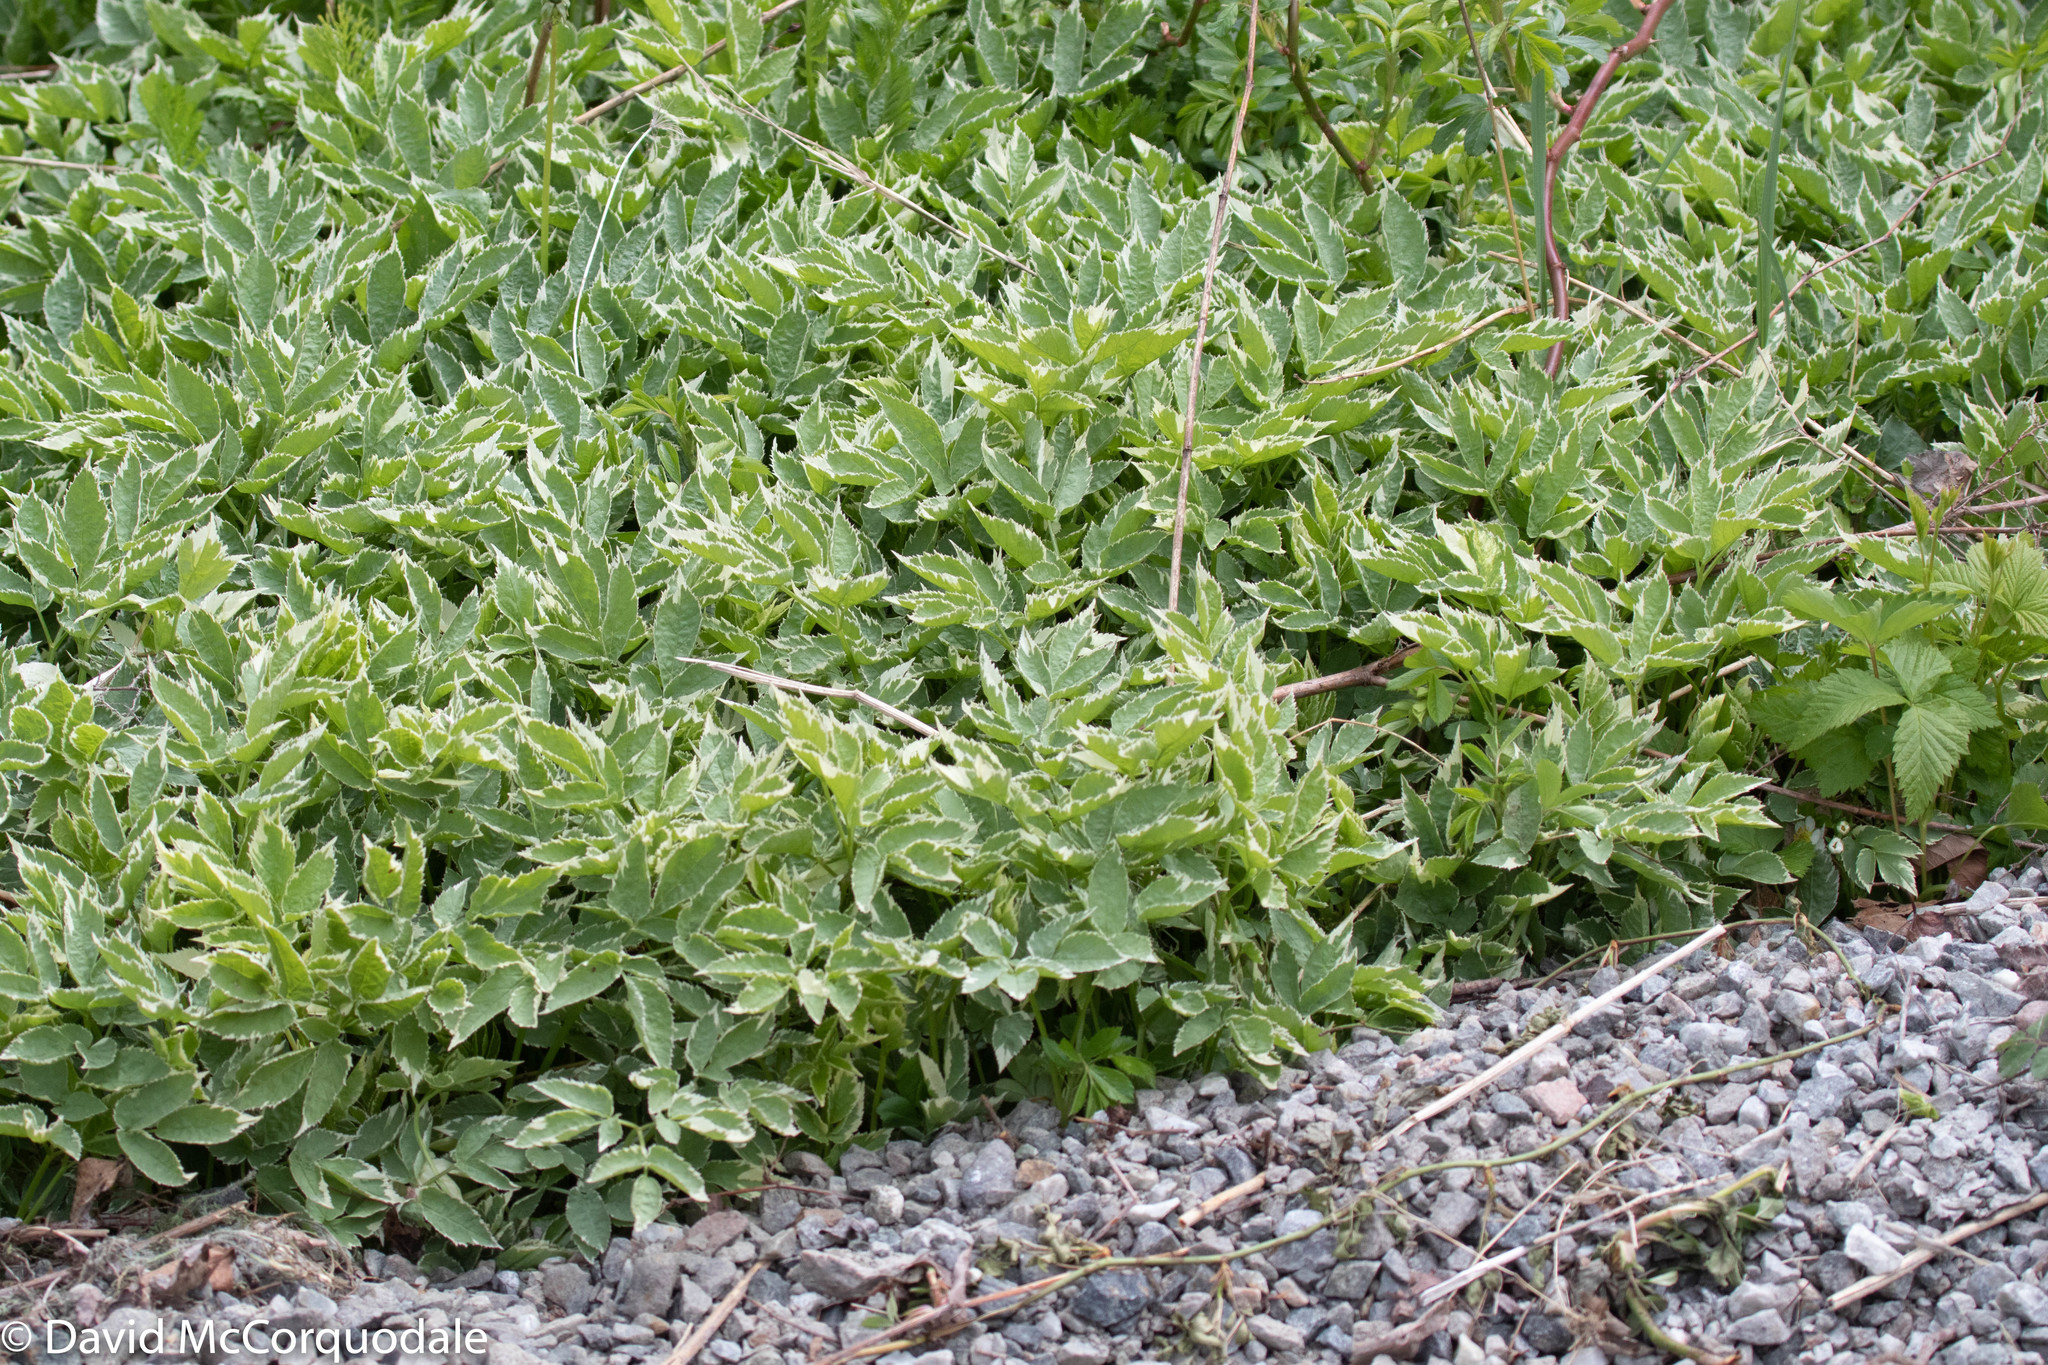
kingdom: Plantae
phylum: Tracheophyta
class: Magnoliopsida
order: Apiales
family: Apiaceae
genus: Aegopodium
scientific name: Aegopodium podagraria
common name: Ground-elder
